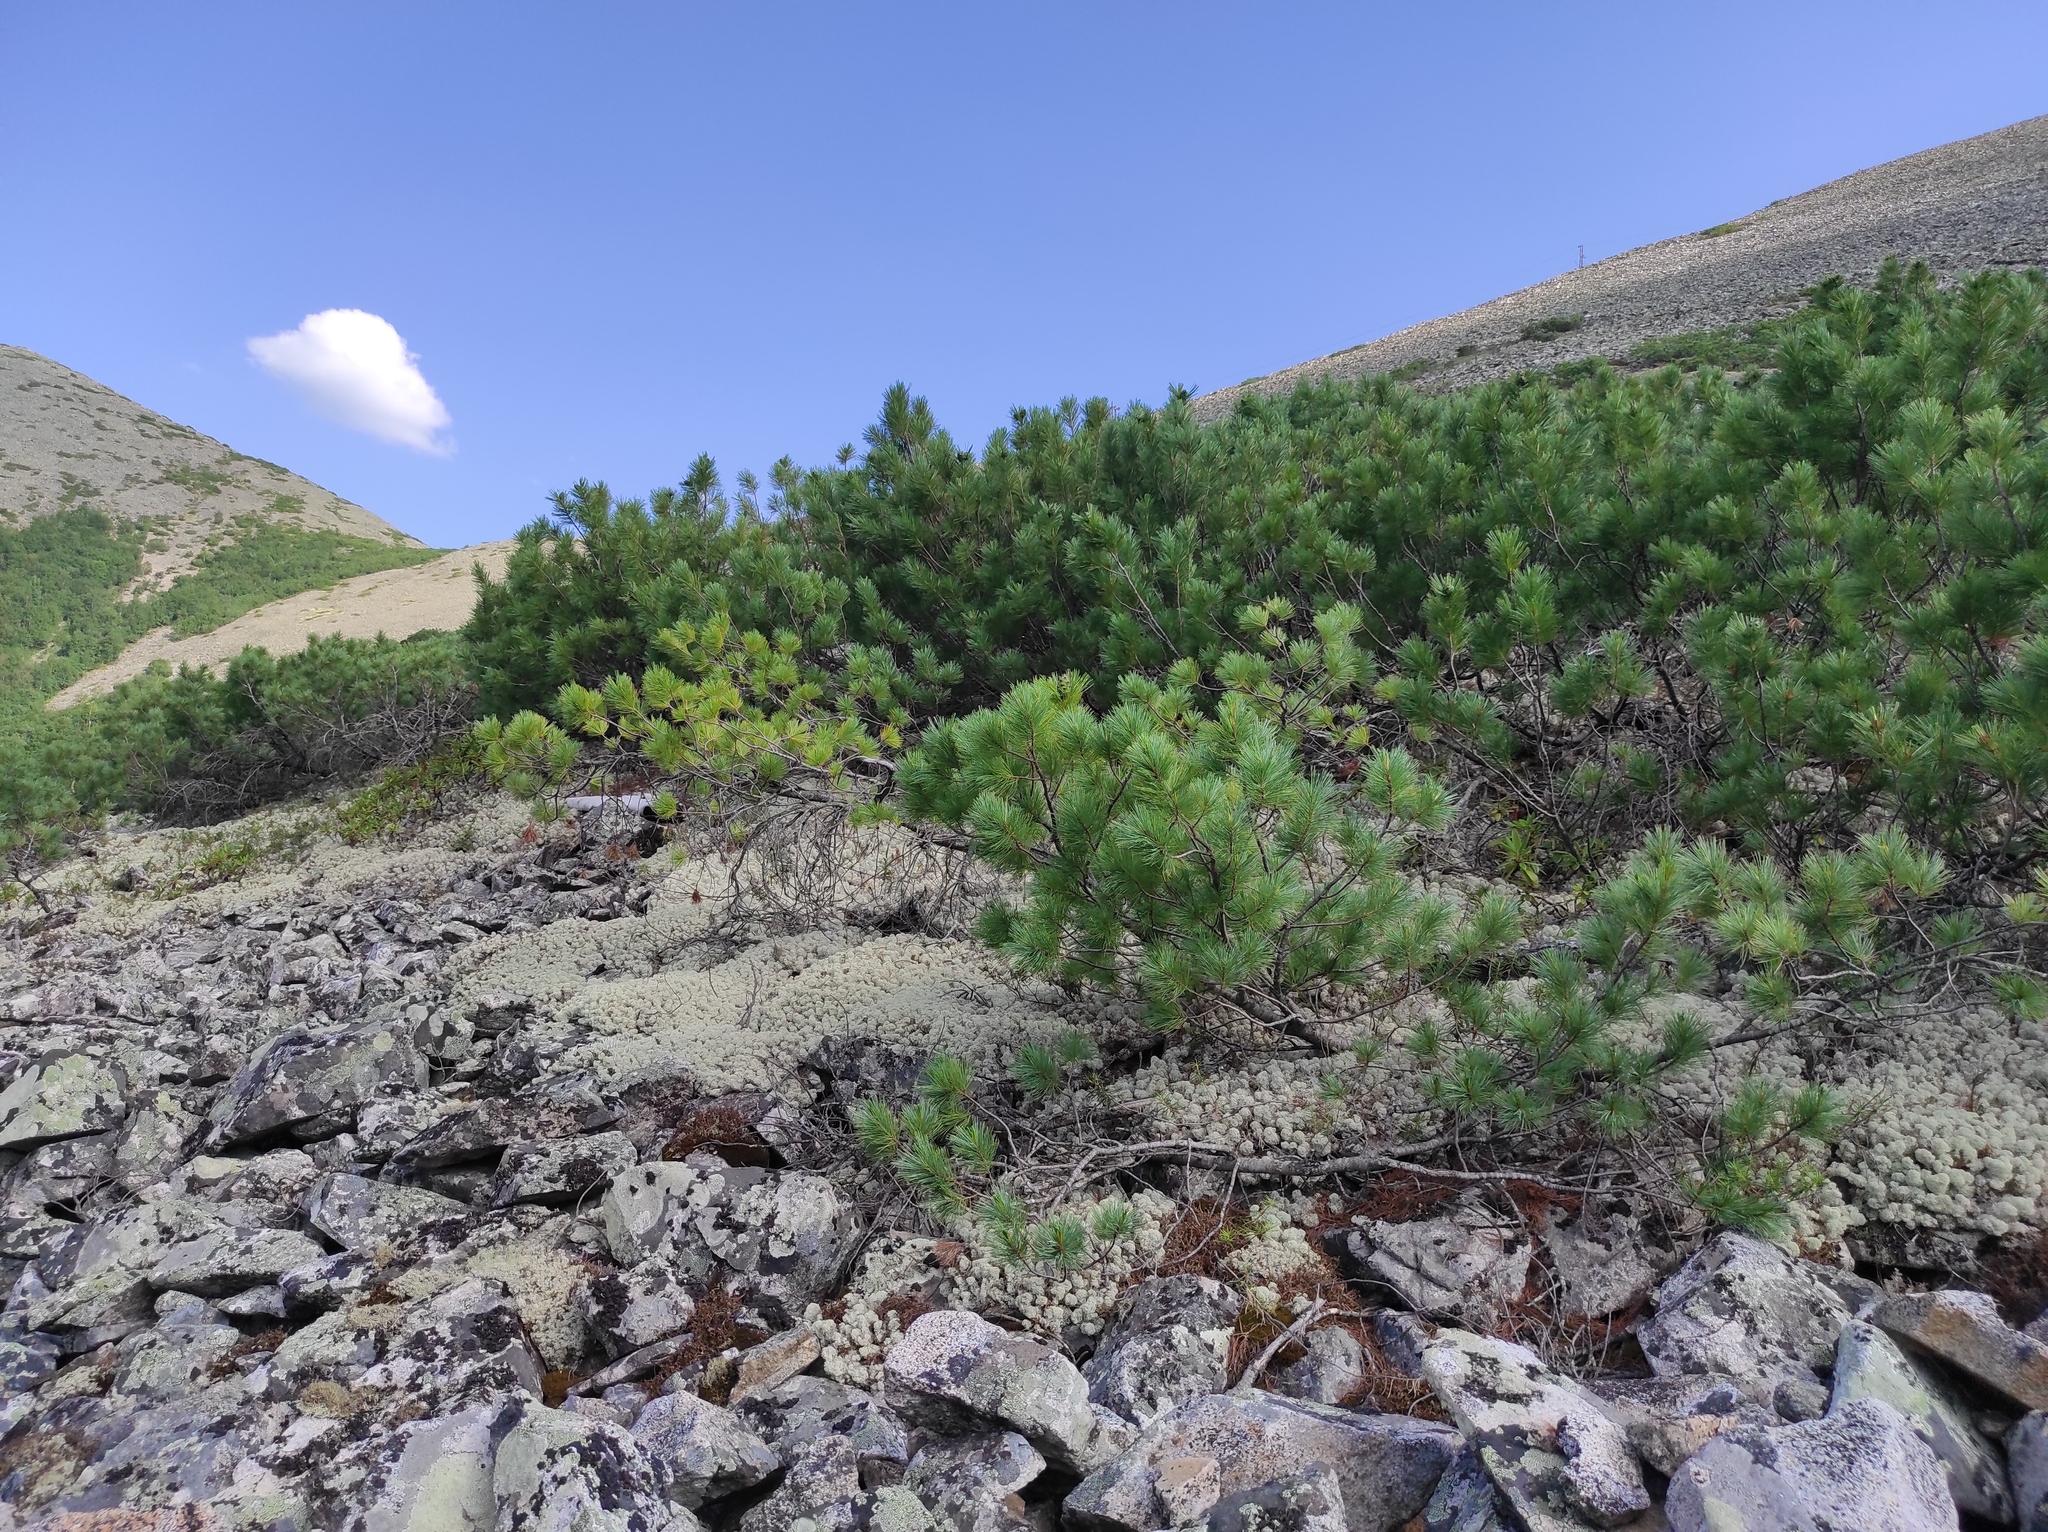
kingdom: Plantae
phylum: Tracheophyta
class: Pinopsida
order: Pinales
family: Pinaceae
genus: Pinus
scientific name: Pinus pumila
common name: Dwarf siberian pine
